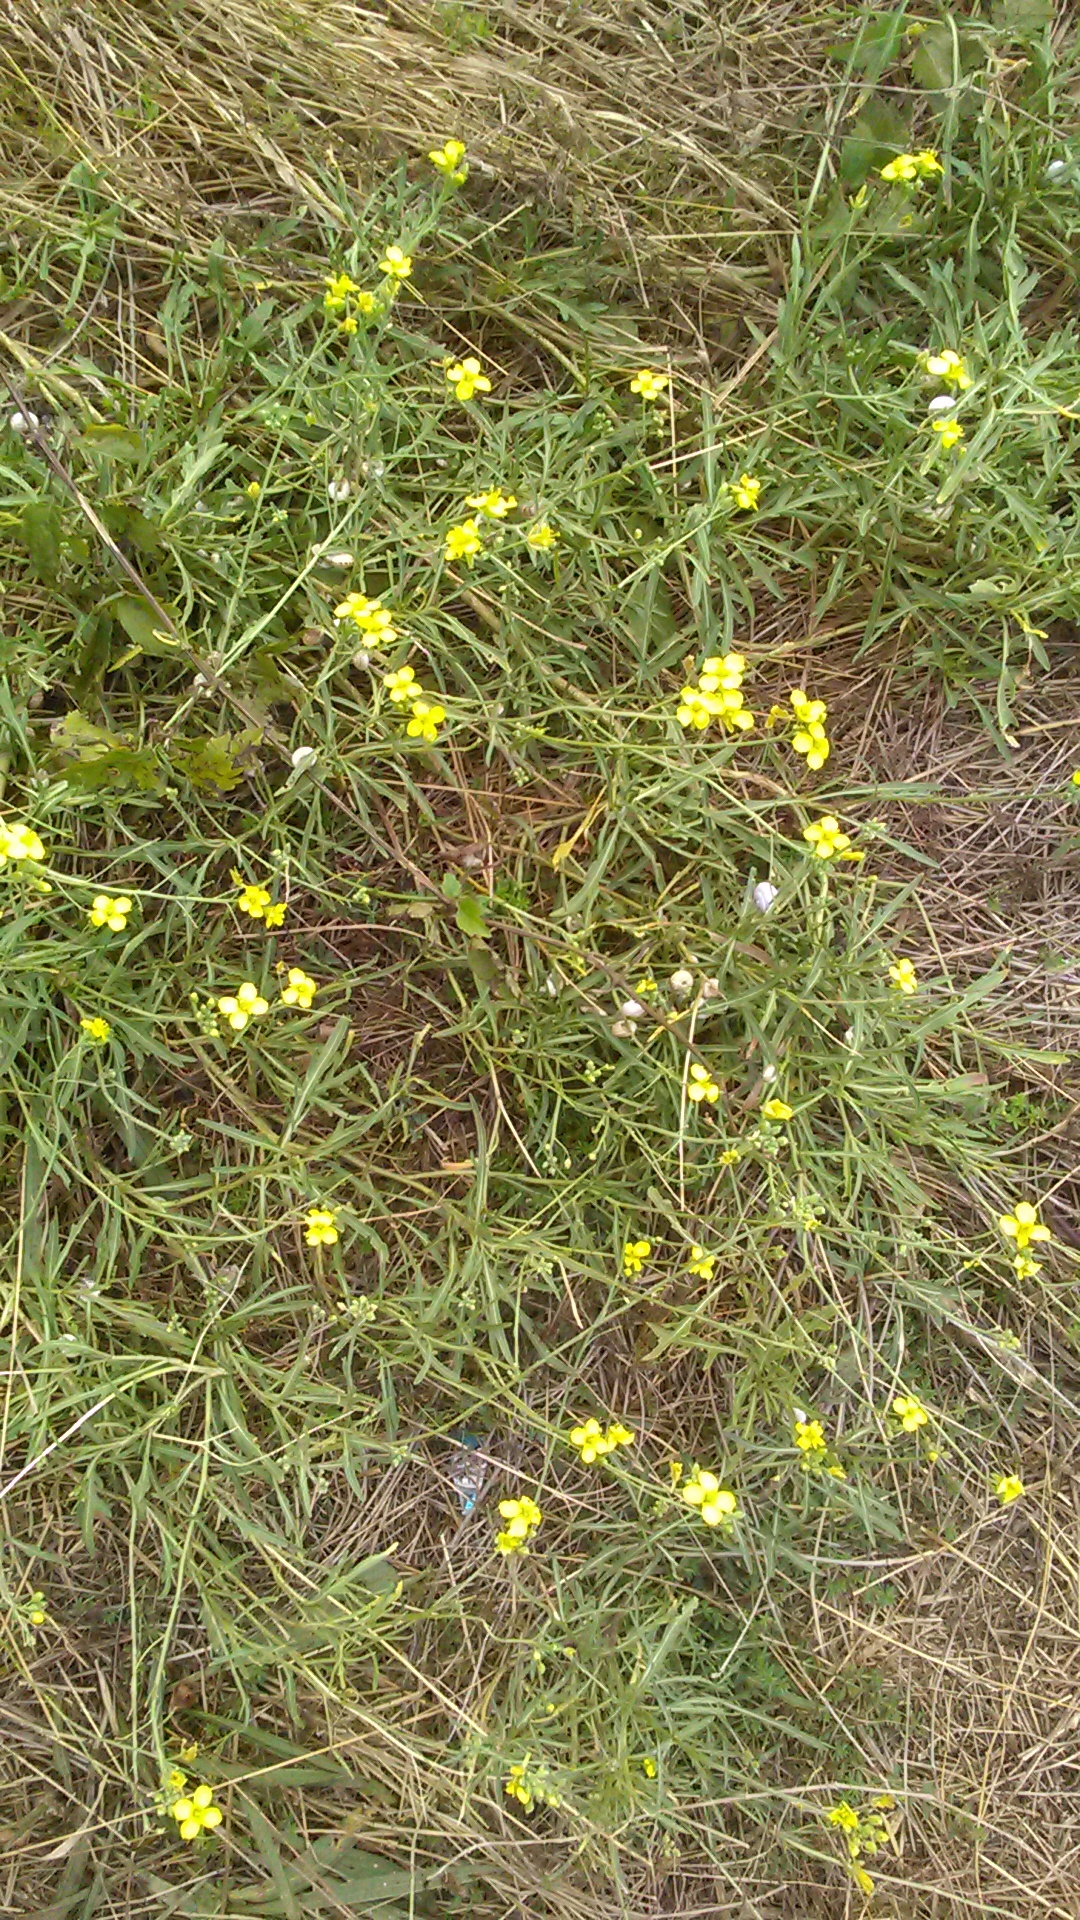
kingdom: Plantae
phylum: Tracheophyta
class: Magnoliopsida
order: Brassicales
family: Brassicaceae
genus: Diplotaxis
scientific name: Diplotaxis tenuifolia
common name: Perennial wall-rocket
